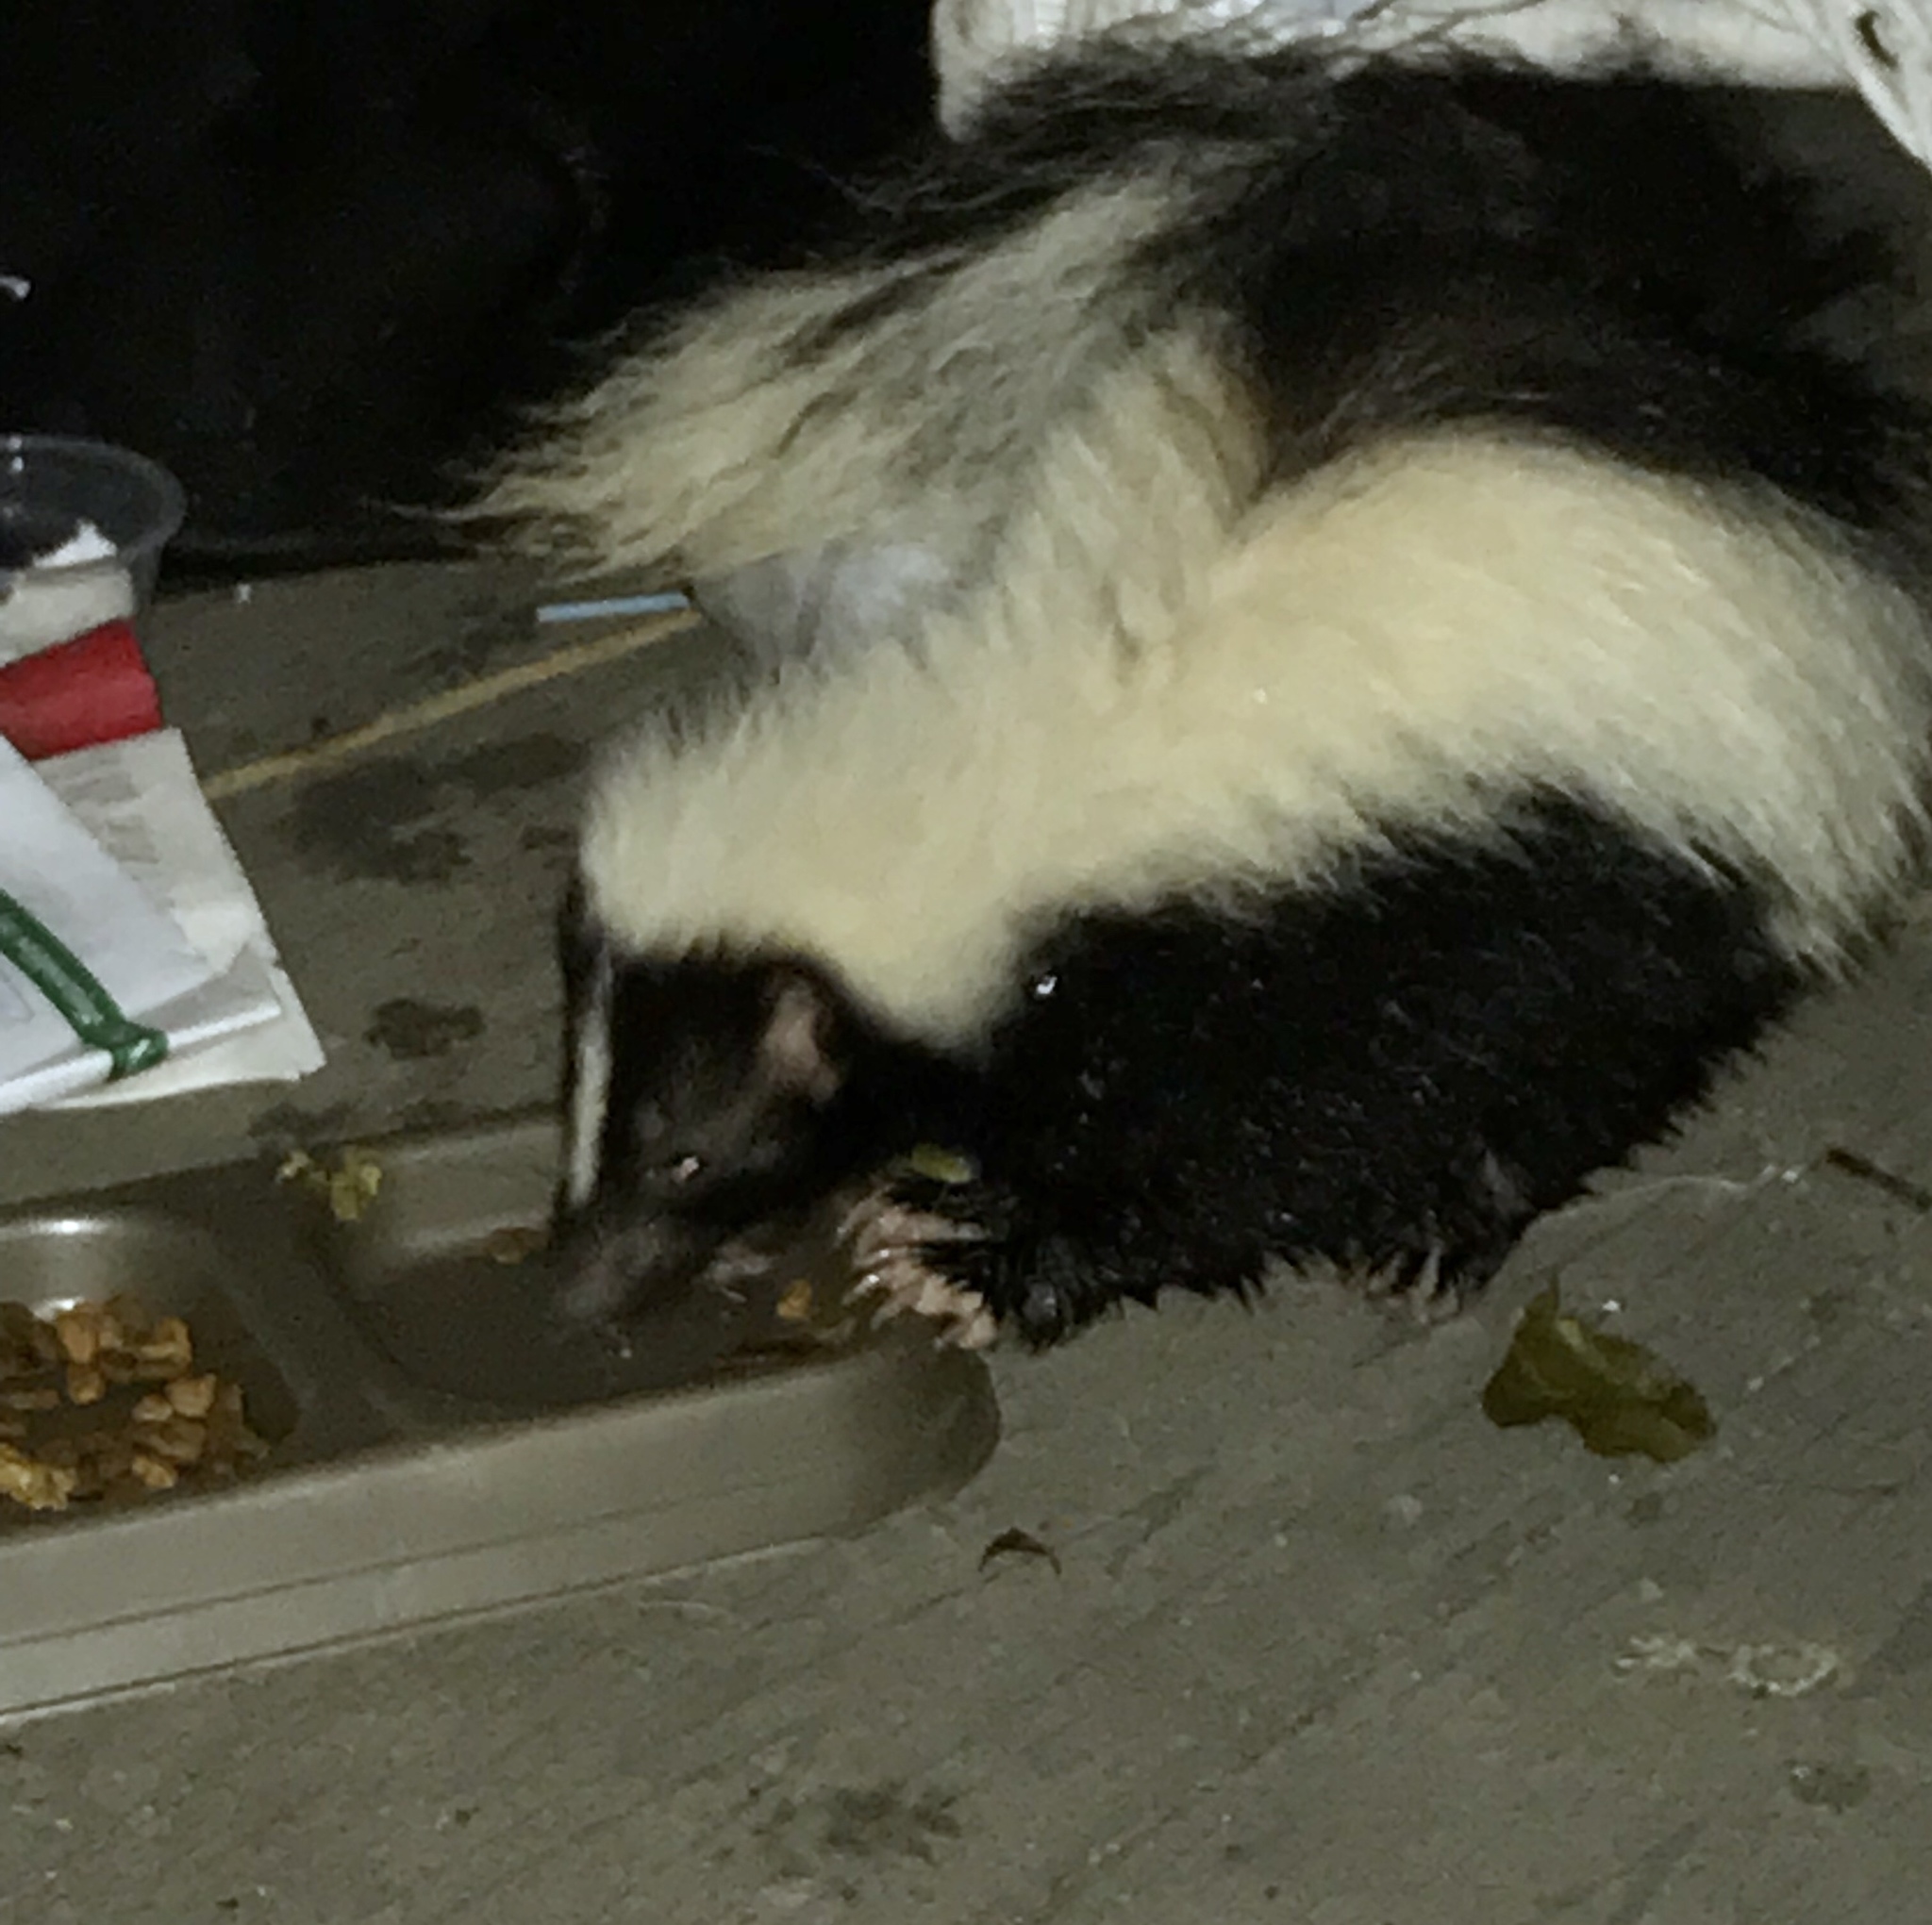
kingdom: Animalia
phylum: Chordata
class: Mammalia
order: Carnivora
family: Mephitidae
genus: Mephitis
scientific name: Mephitis mephitis
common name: Striped skunk
